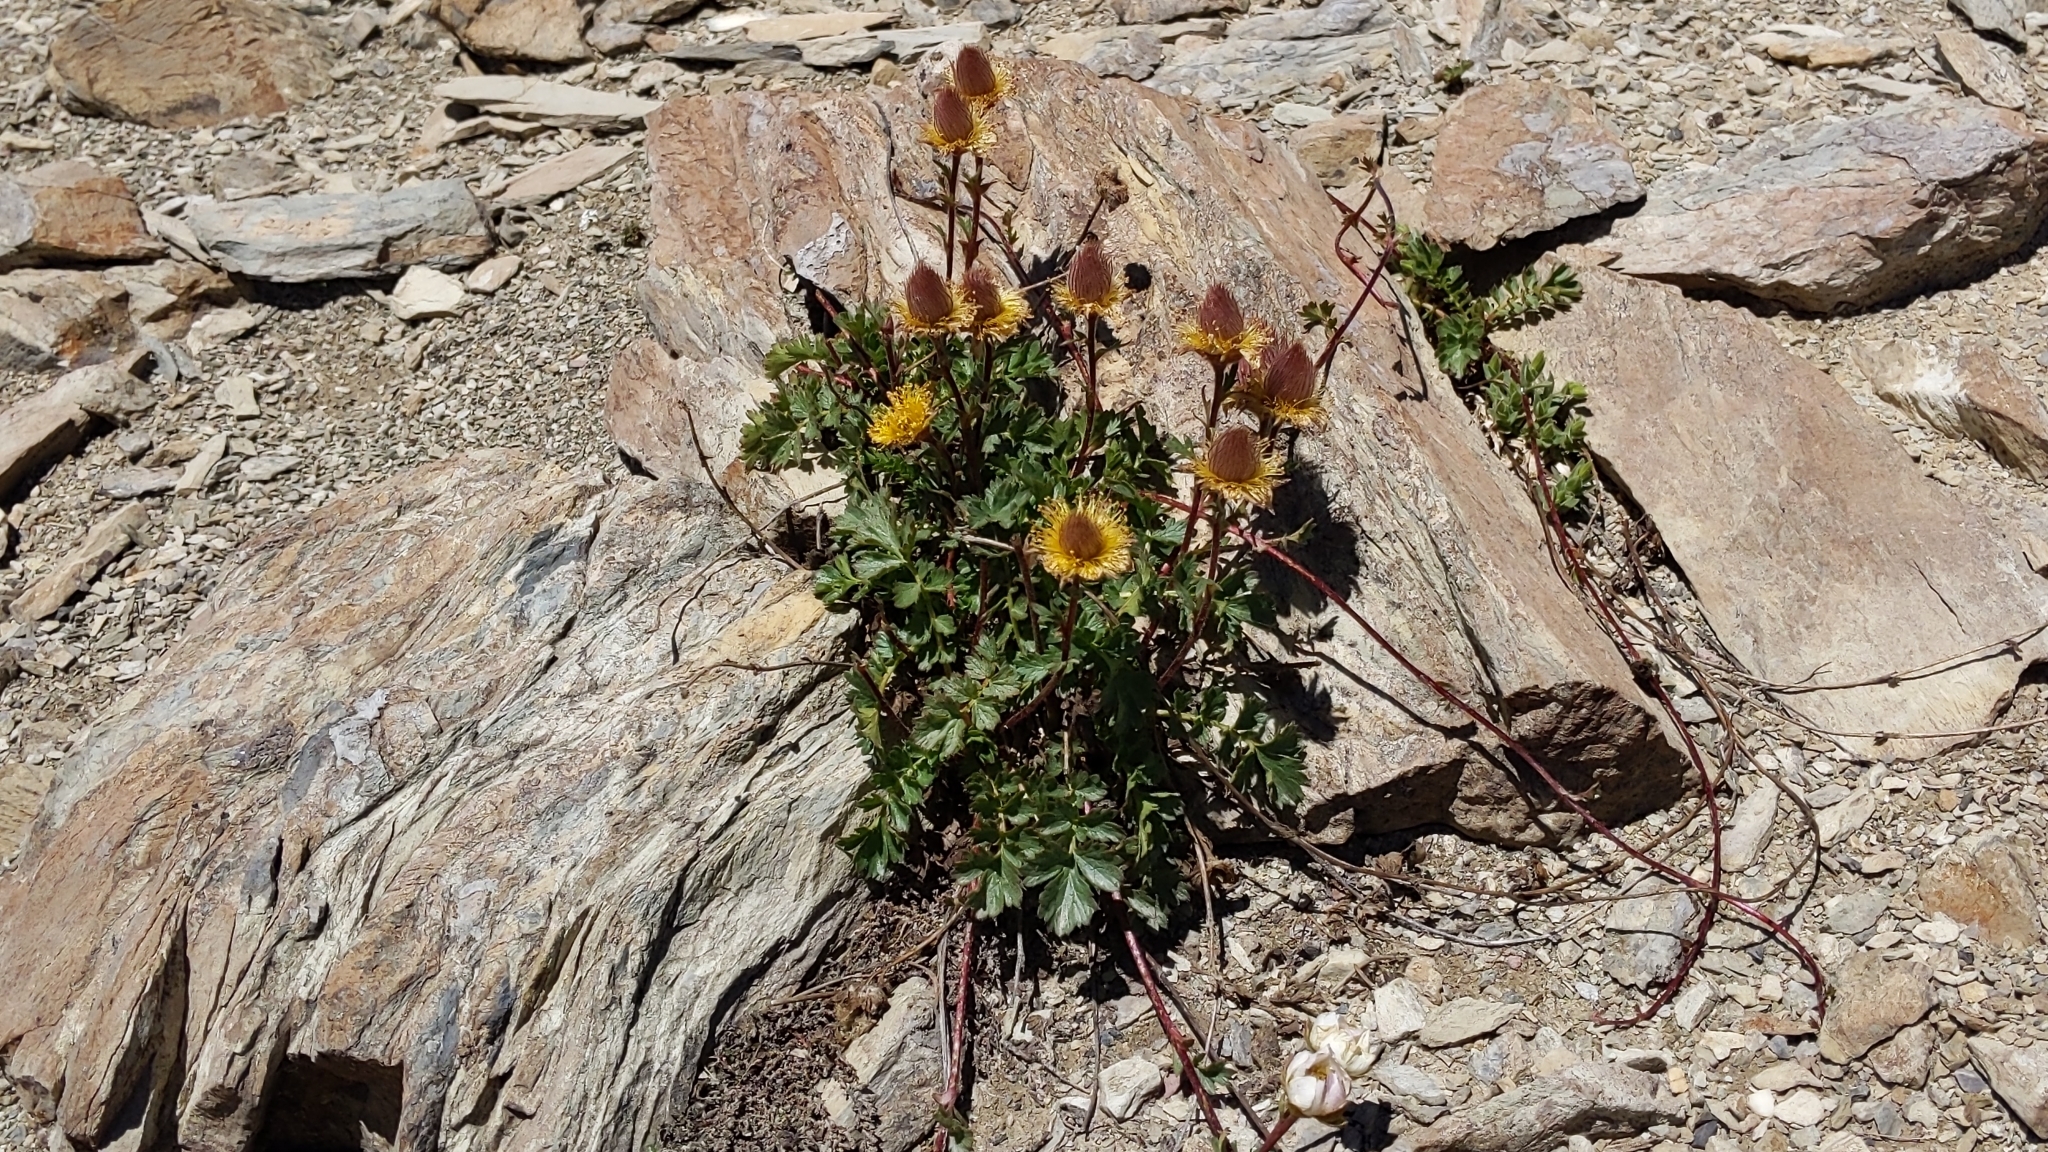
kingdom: Plantae
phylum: Tracheophyta
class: Magnoliopsida
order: Rosales
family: Rosaceae
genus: Geum
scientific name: Geum reptans
